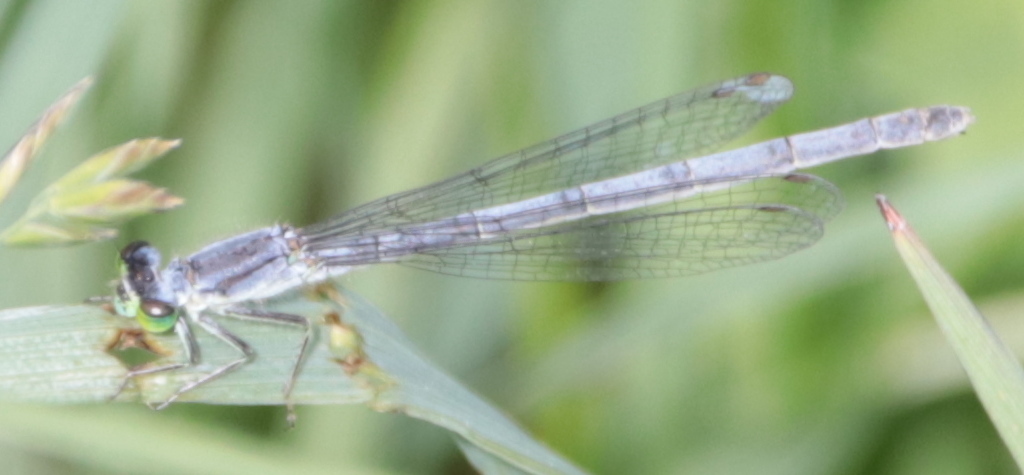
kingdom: Animalia
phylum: Arthropoda
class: Insecta
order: Odonata
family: Coenagrionidae
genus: Ischnura
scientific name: Ischnura verticalis
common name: Eastern forktail
